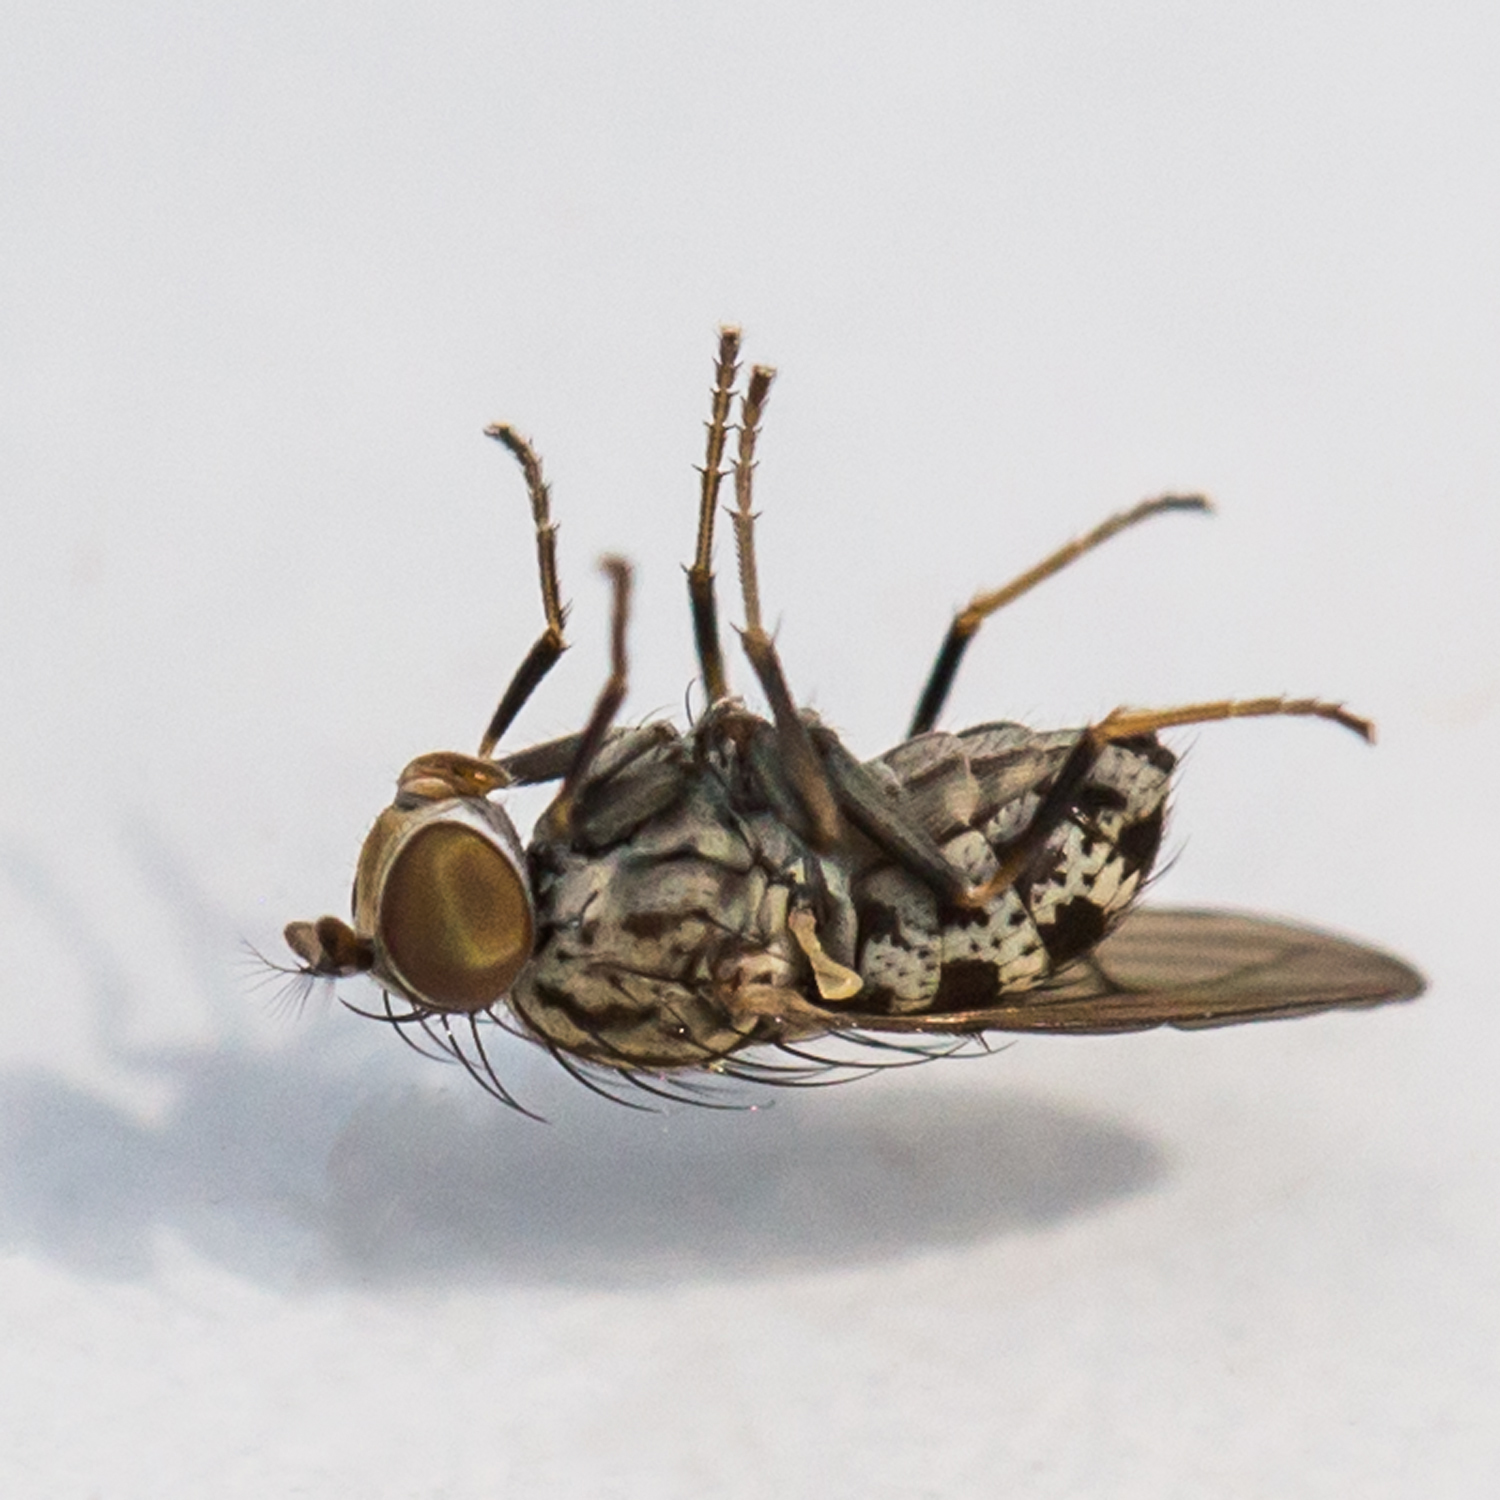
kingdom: Animalia
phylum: Arthropoda
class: Insecta
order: Diptera
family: Ephydridae
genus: Notiphila
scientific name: Notiphila pulchrifrons
